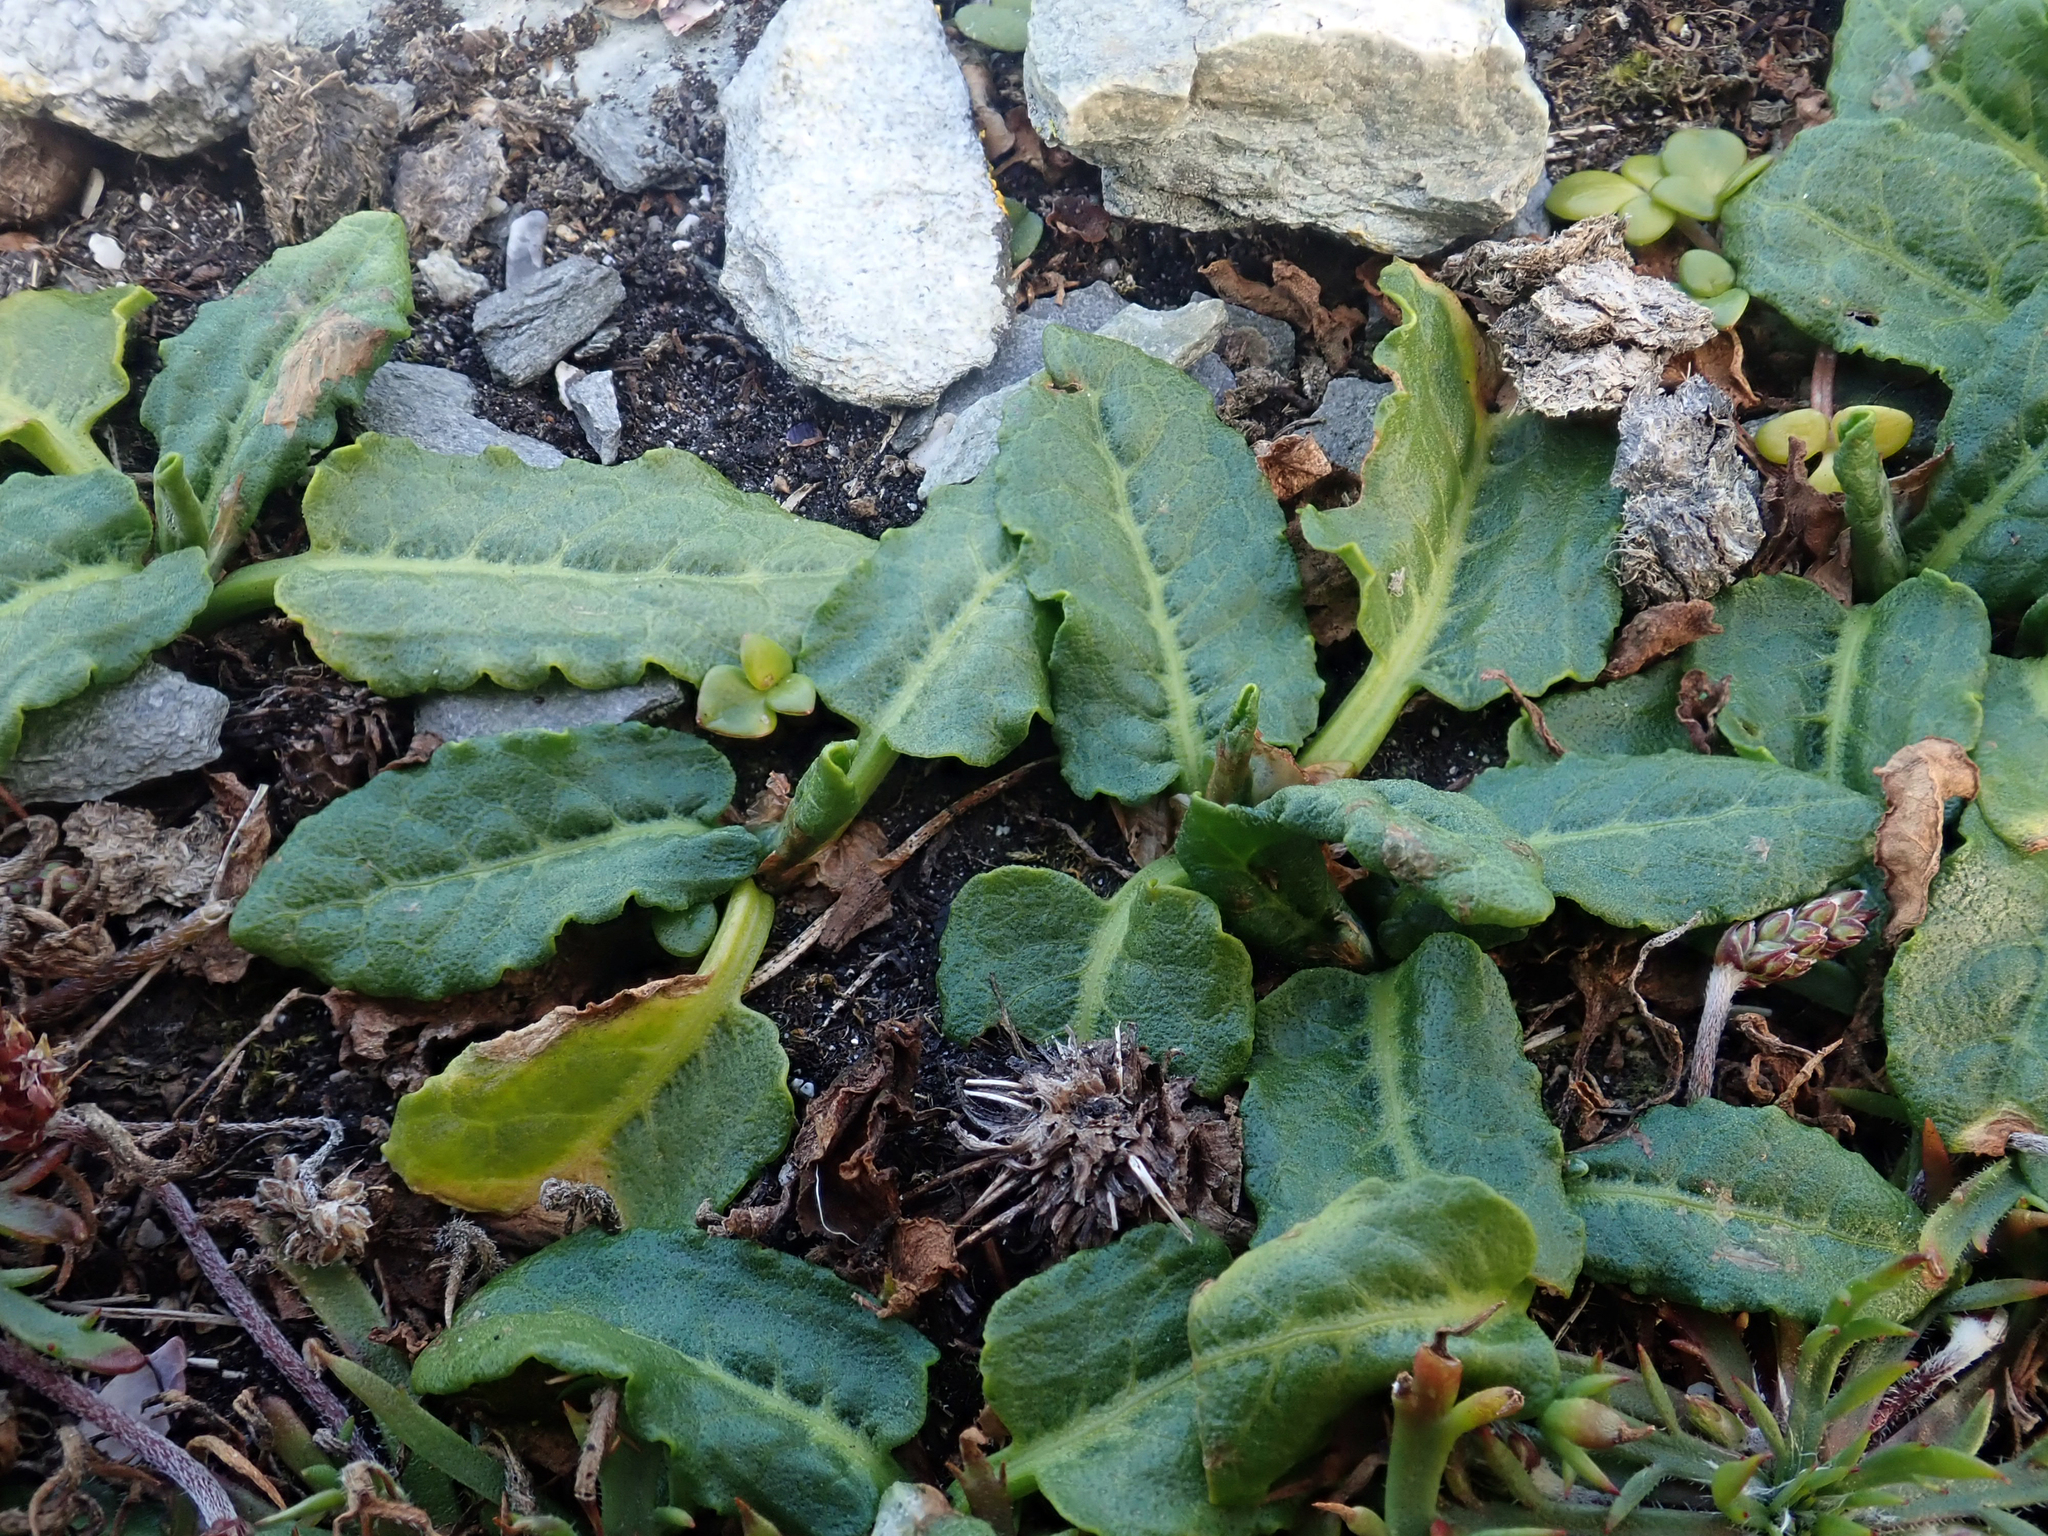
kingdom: Plantae
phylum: Tracheophyta
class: Magnoliopsida
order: Caryophyllales
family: Polygonaceae
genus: Rumex
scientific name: Rumex neglectus
